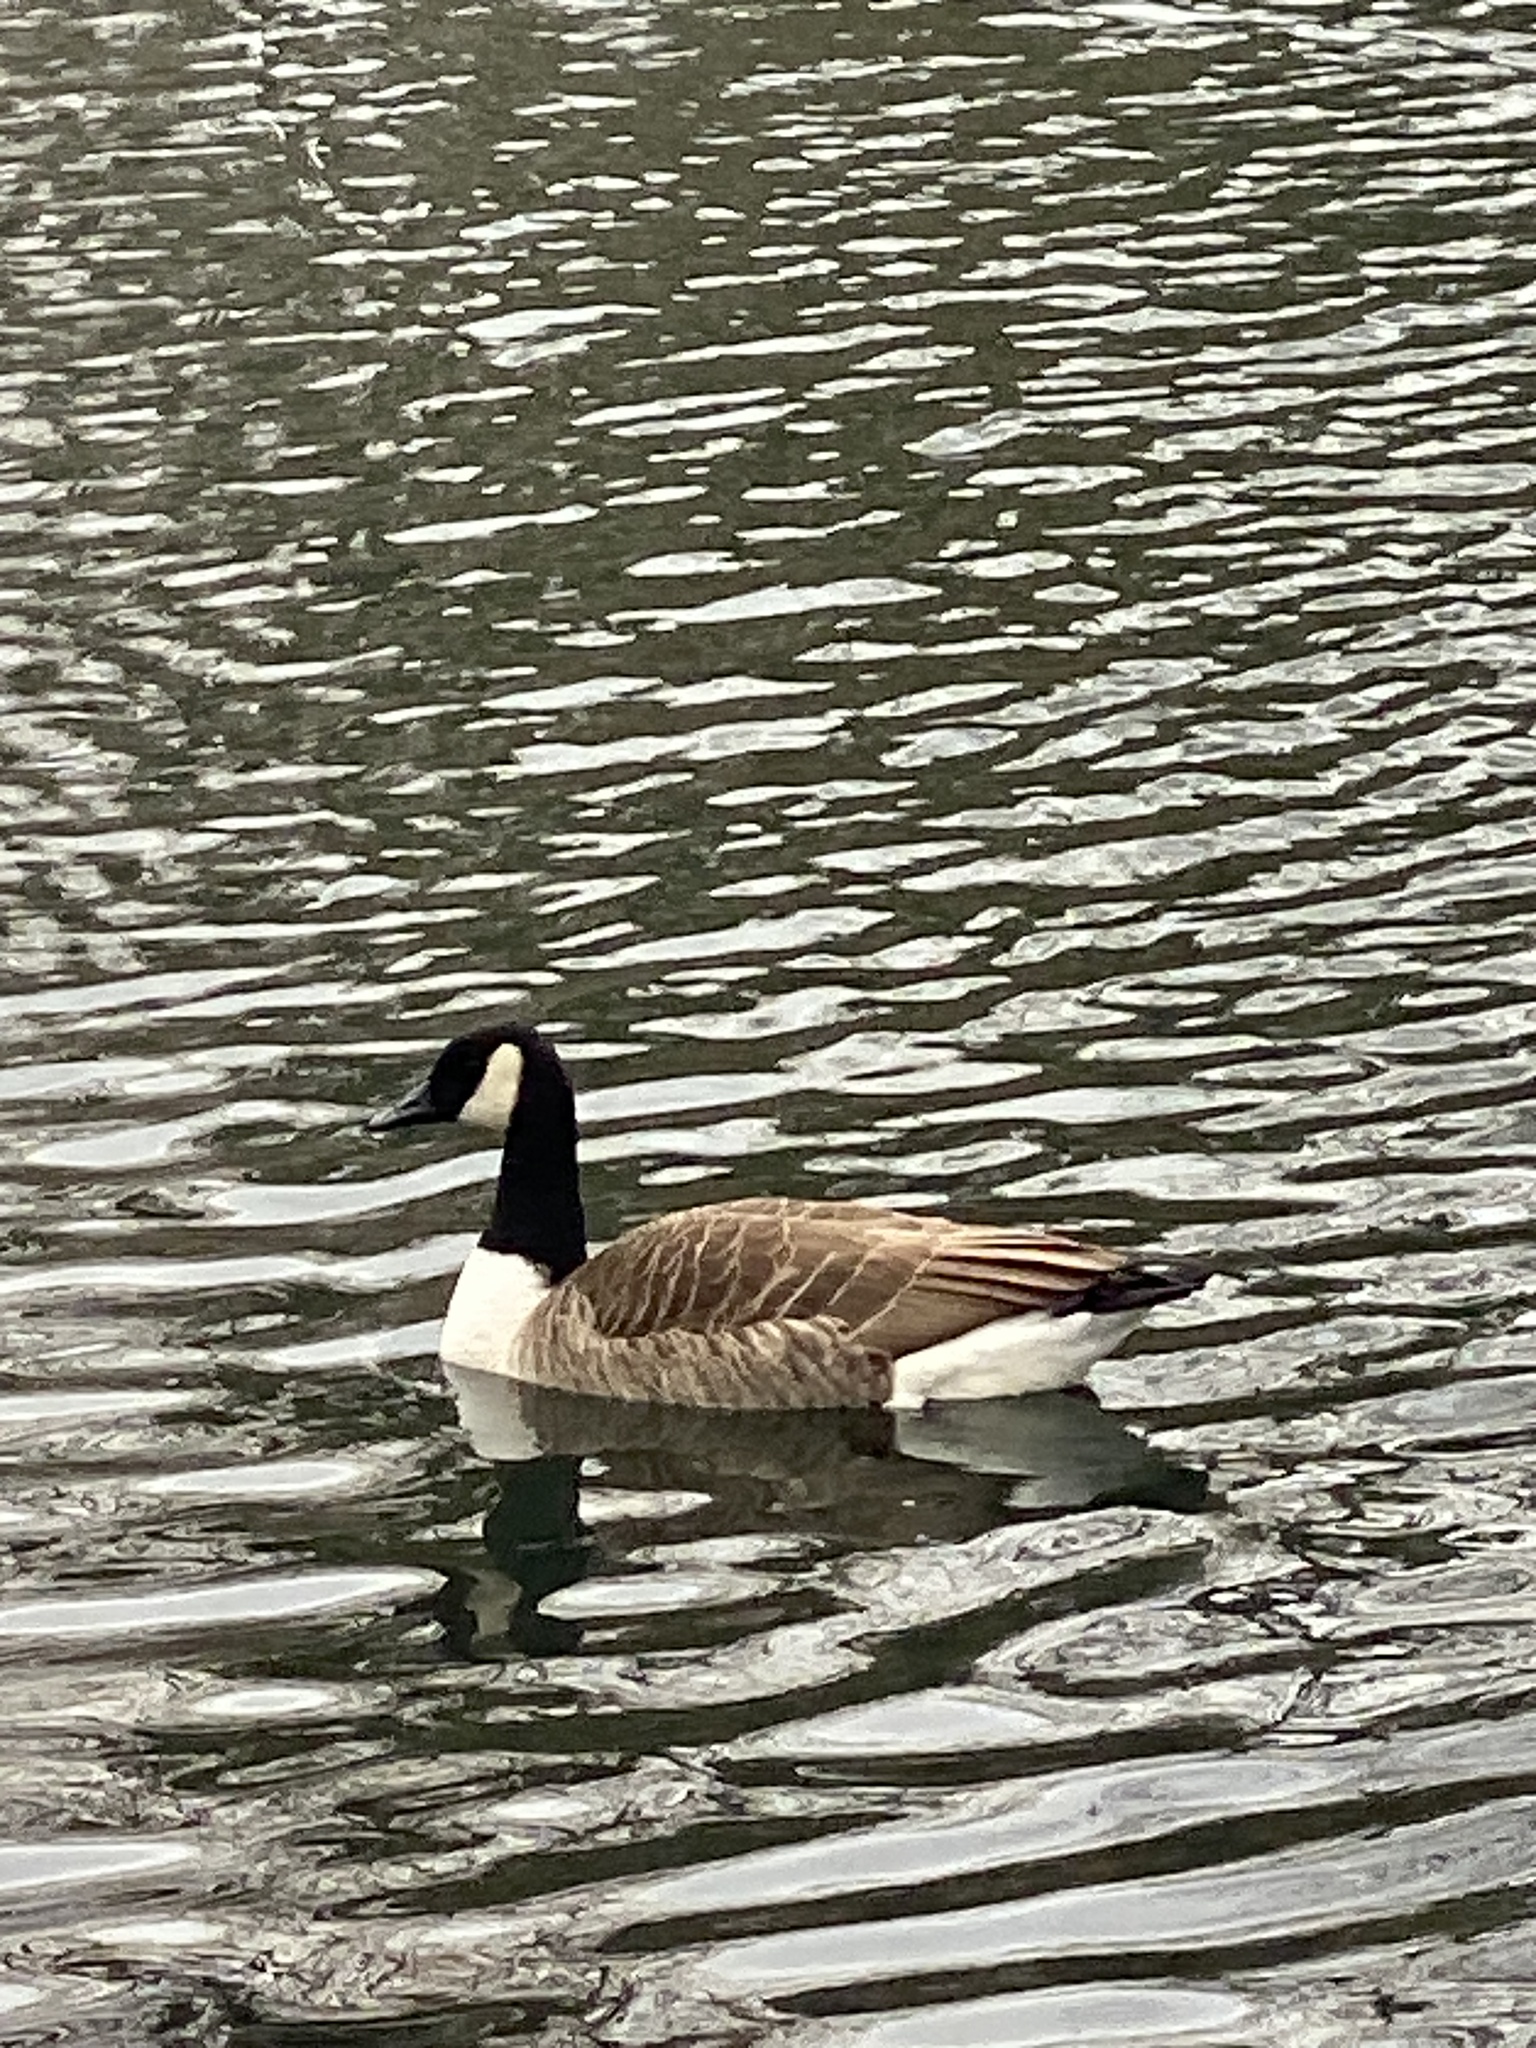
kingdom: Animalia
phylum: Chordata
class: Aves
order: Anseriformes
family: Anatidae
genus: Branta
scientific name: Branta canadensis
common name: Canada goose
